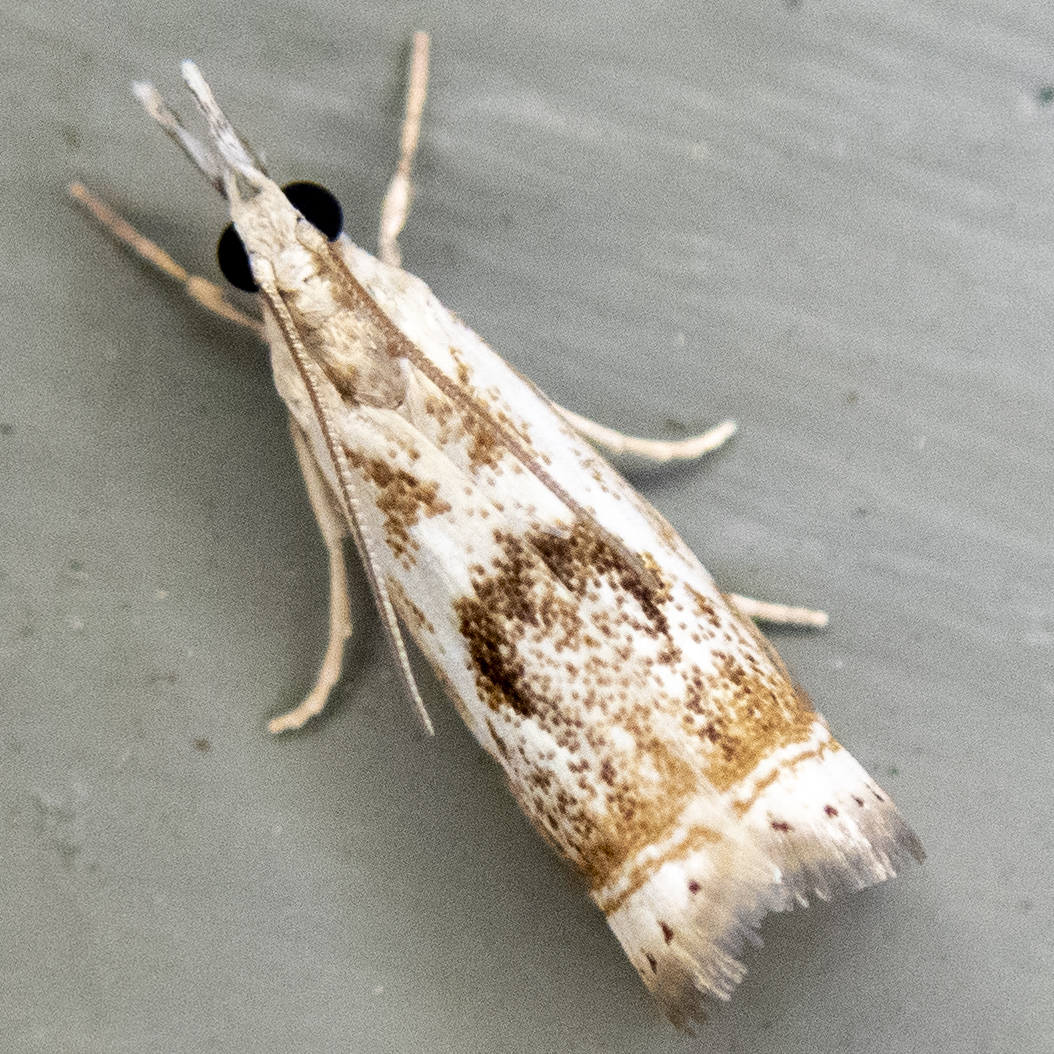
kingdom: Animalia
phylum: Arthropoda
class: Insecta
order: Lepidoptera
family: Crambidae
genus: Microcrambus
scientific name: Microcrambus elegans
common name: Elegant grass-veneer
